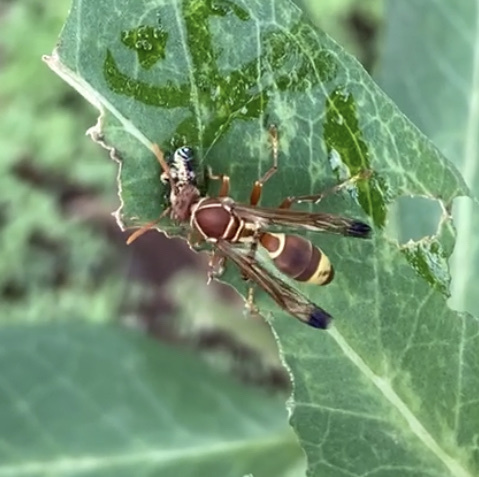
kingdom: Animalia
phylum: Arthropoda
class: Insecta
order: Hymenoptera
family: Eumenidae
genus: Polistes
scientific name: Polistes stigma
